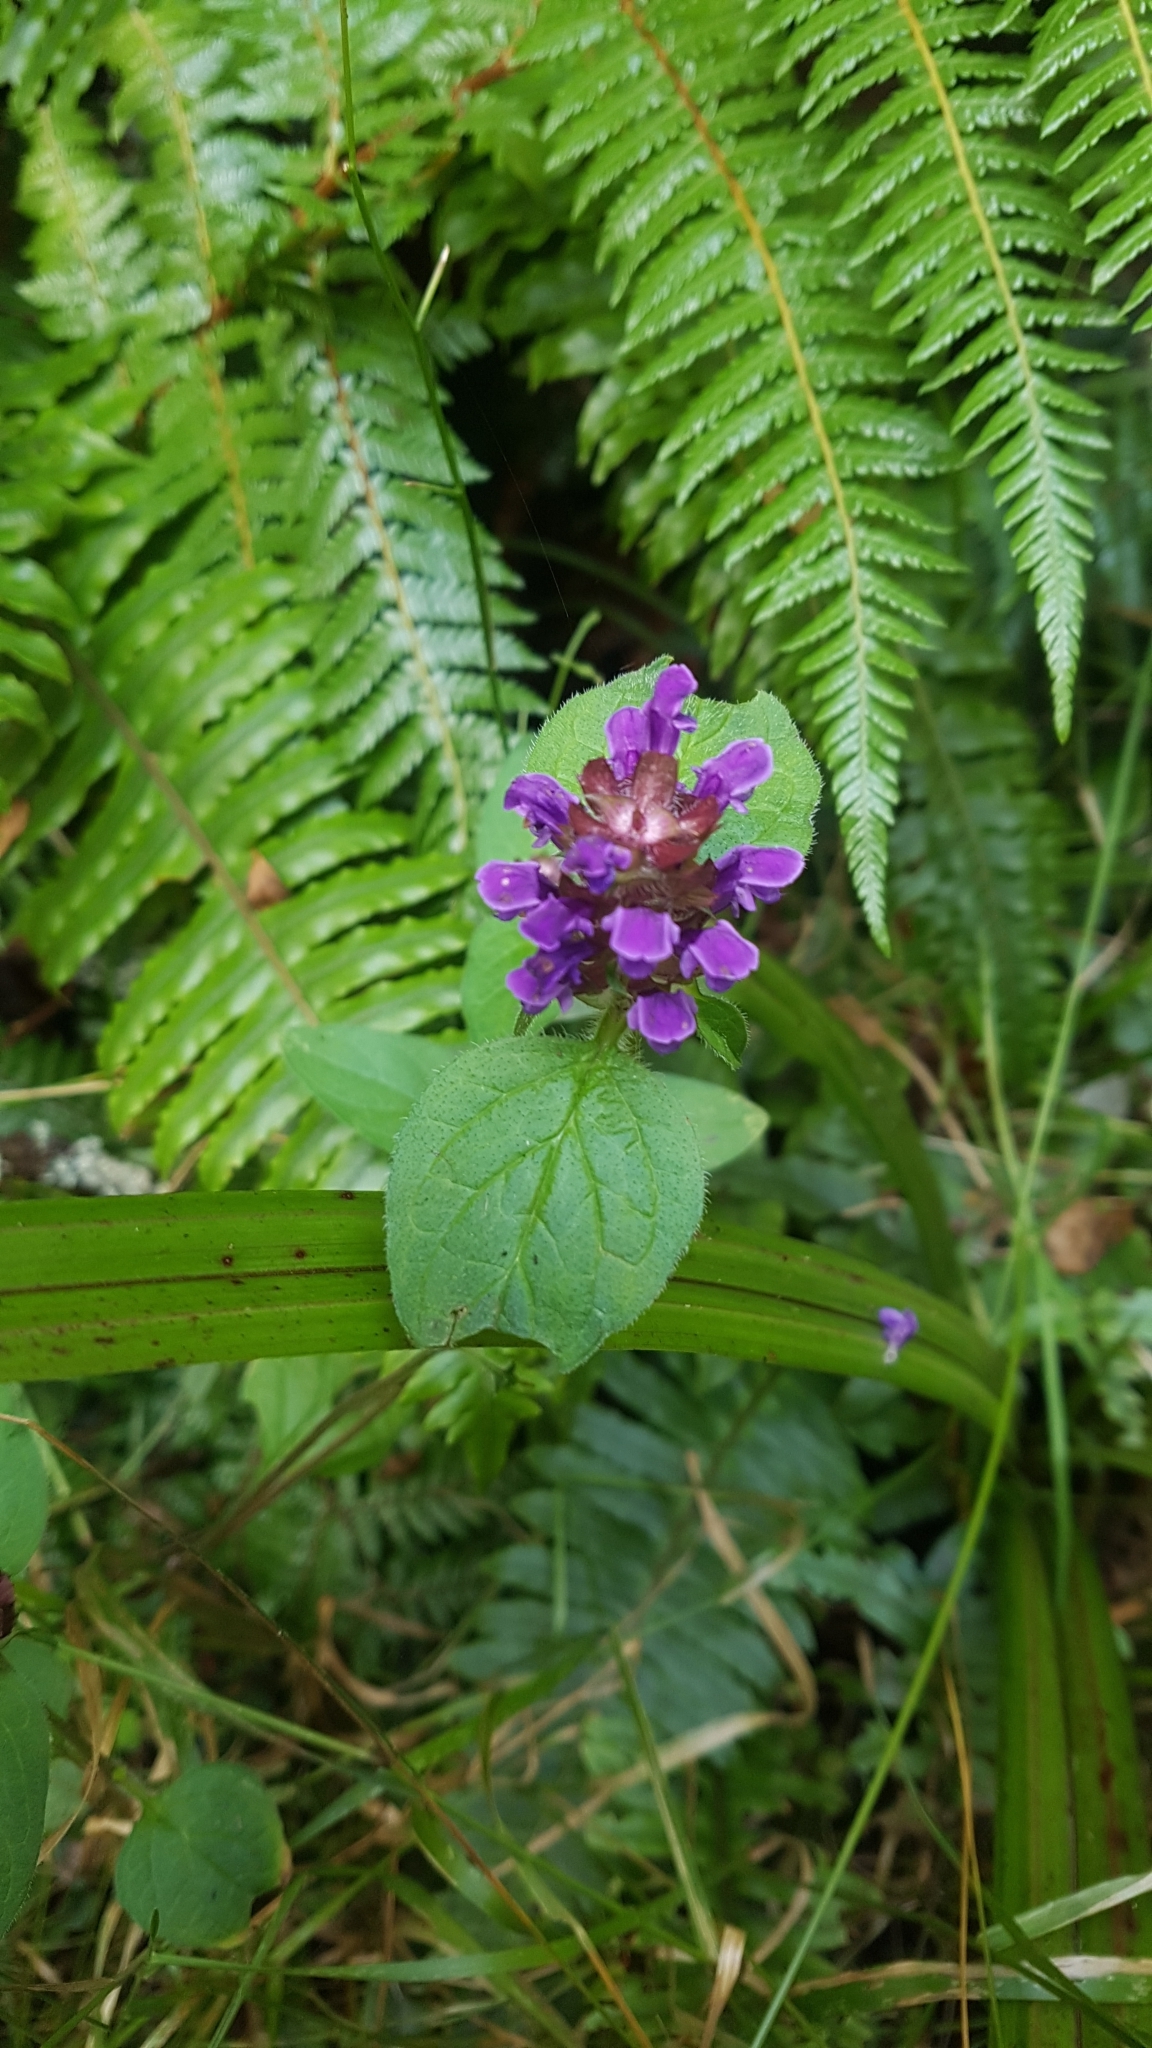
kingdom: Plantae
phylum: Tracheophyta
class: Magnoliopsida
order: Lamiales
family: Lamiaceae
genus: Prunella
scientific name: Prunella vulgaris
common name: Heal-all
